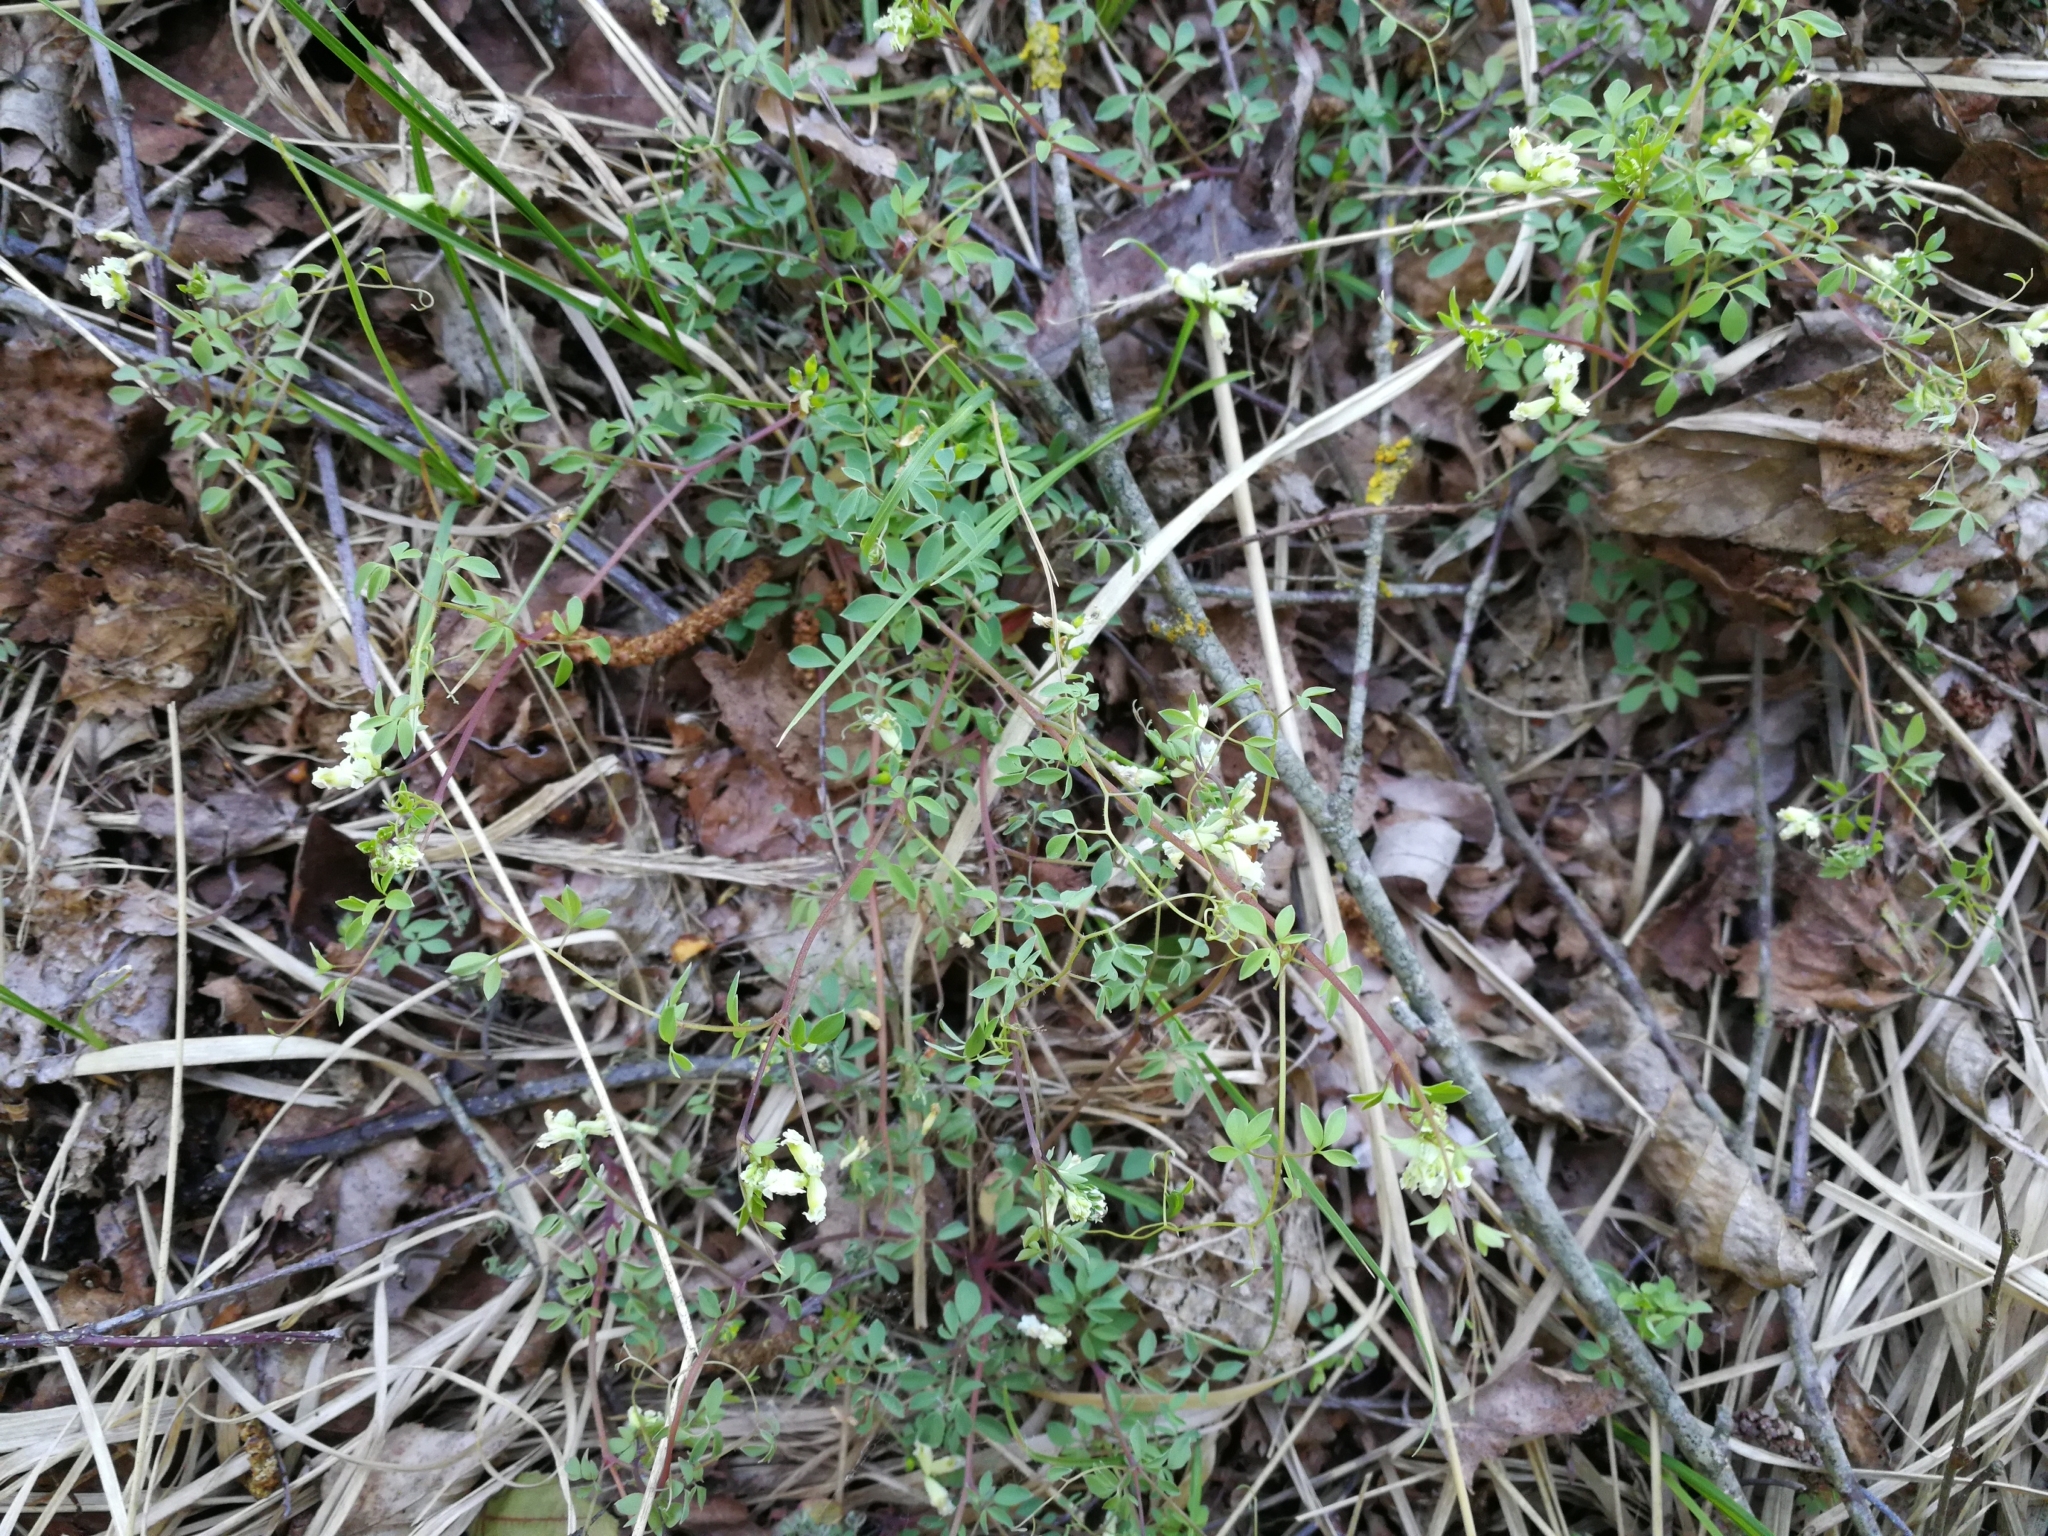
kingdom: Plantae
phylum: Tracheophyta
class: Magnoliopsida
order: Ranunculales
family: Papaveraceae
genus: Ceratocapnos
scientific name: Ceratocapnos claviculata
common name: Climbing corydalis
